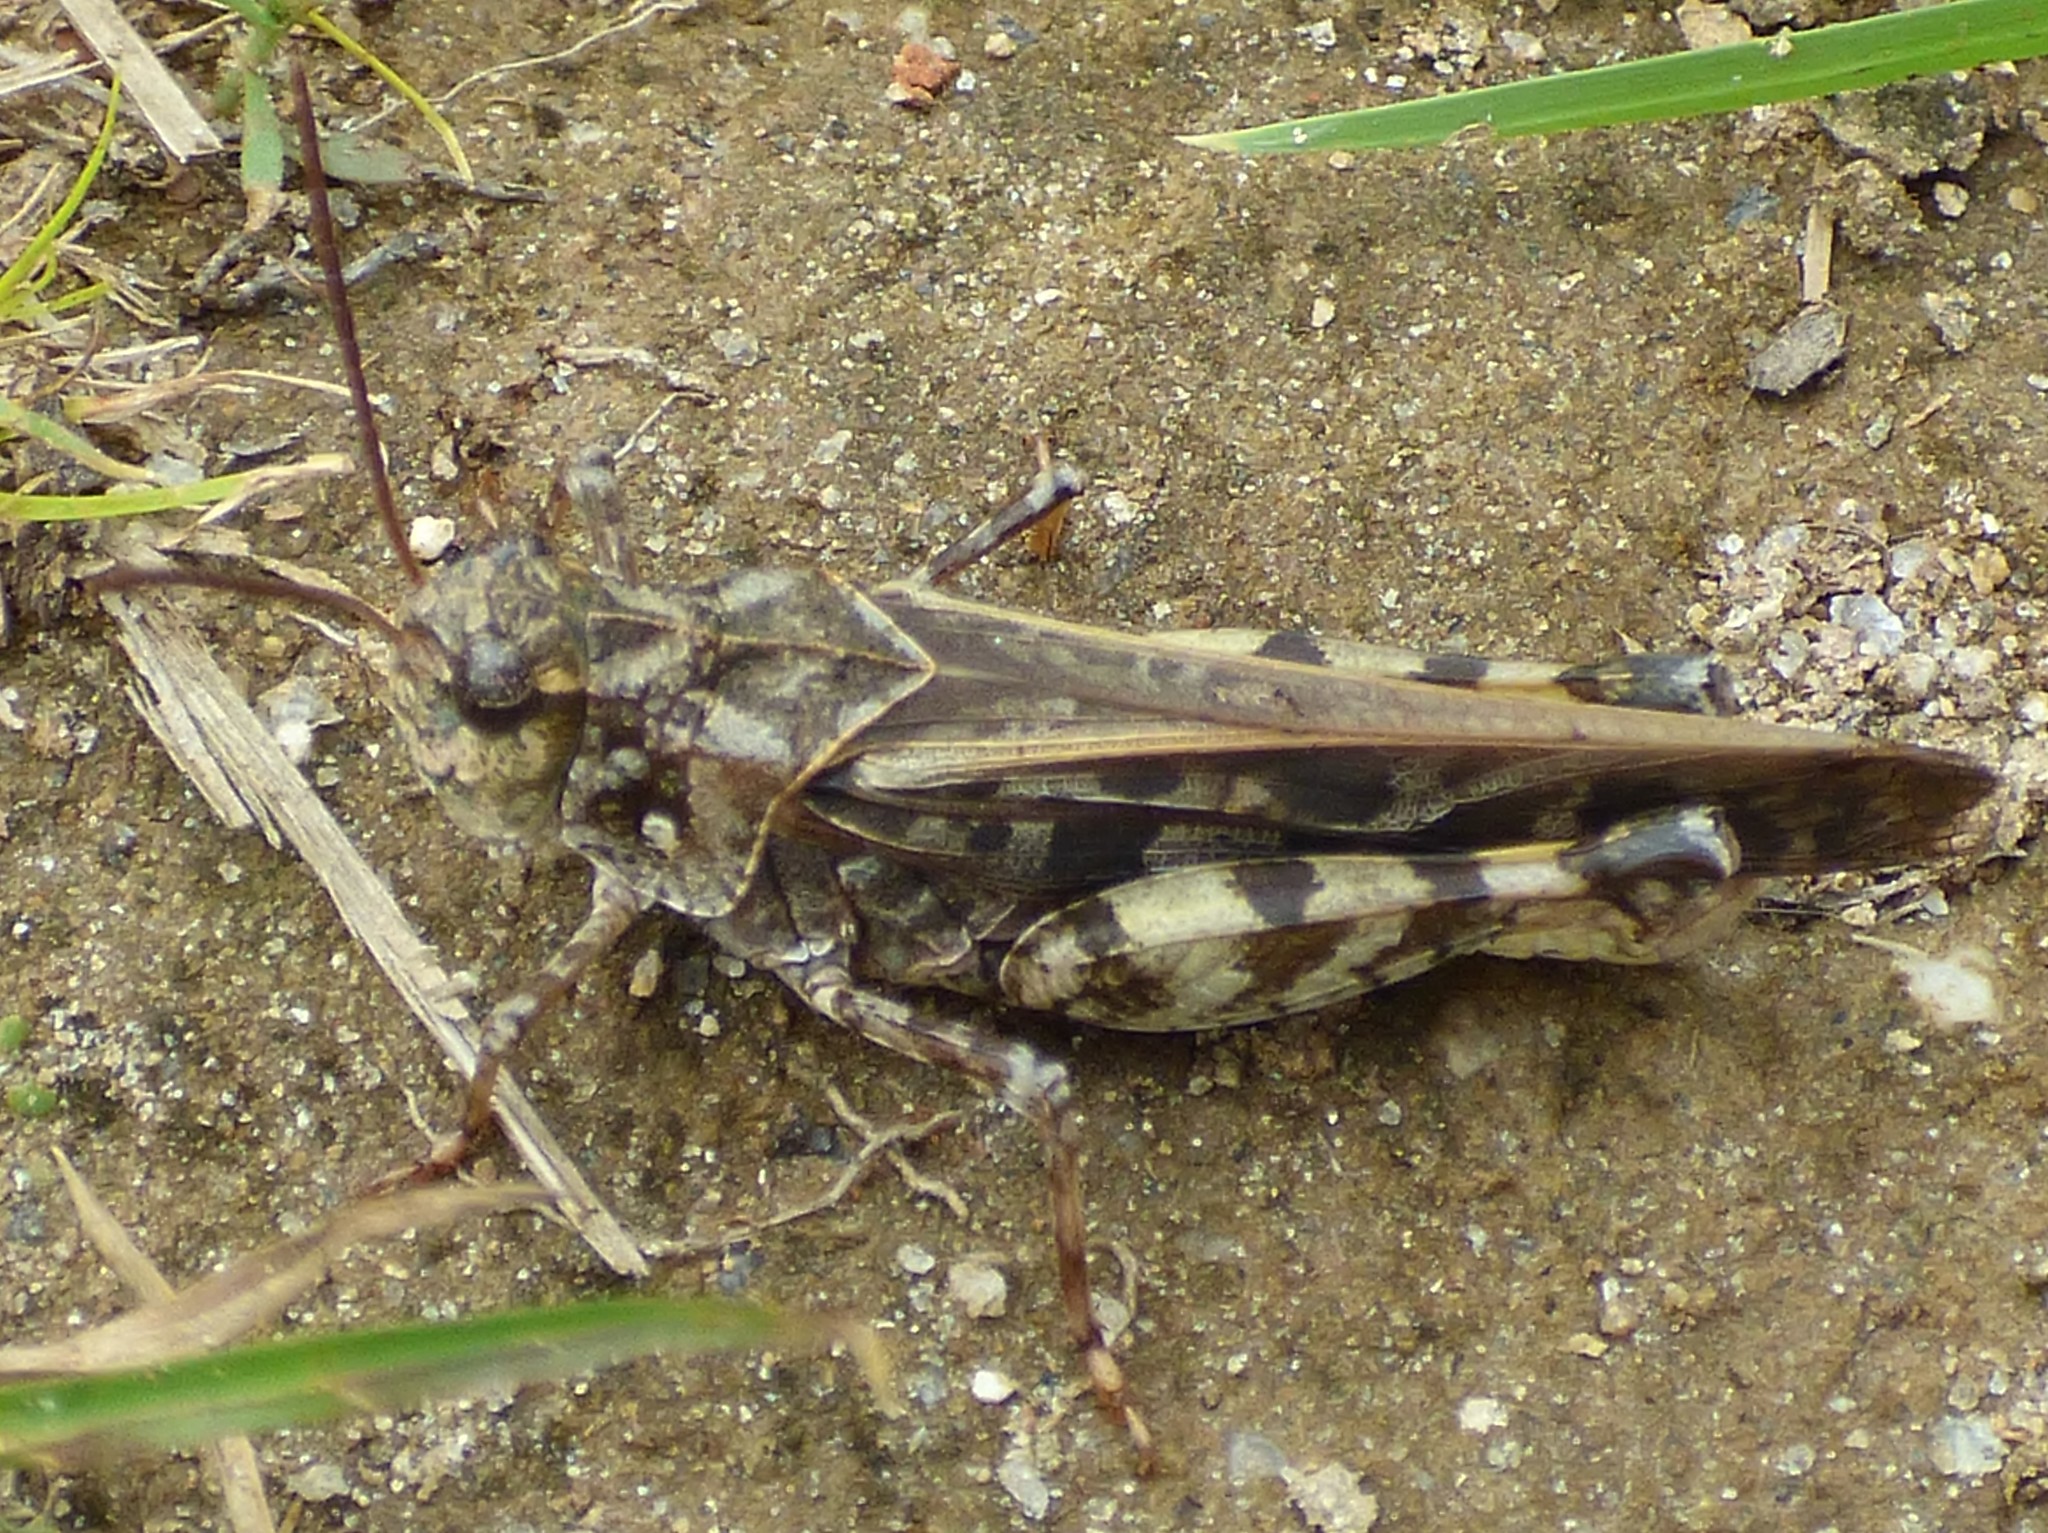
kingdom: Animalia
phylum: Arthropoda
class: Insecta
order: Orthoptera
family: Acrididae
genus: Pardalophora
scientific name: Pardalophora phoenicoptera
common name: Orange-winged grasshopper
